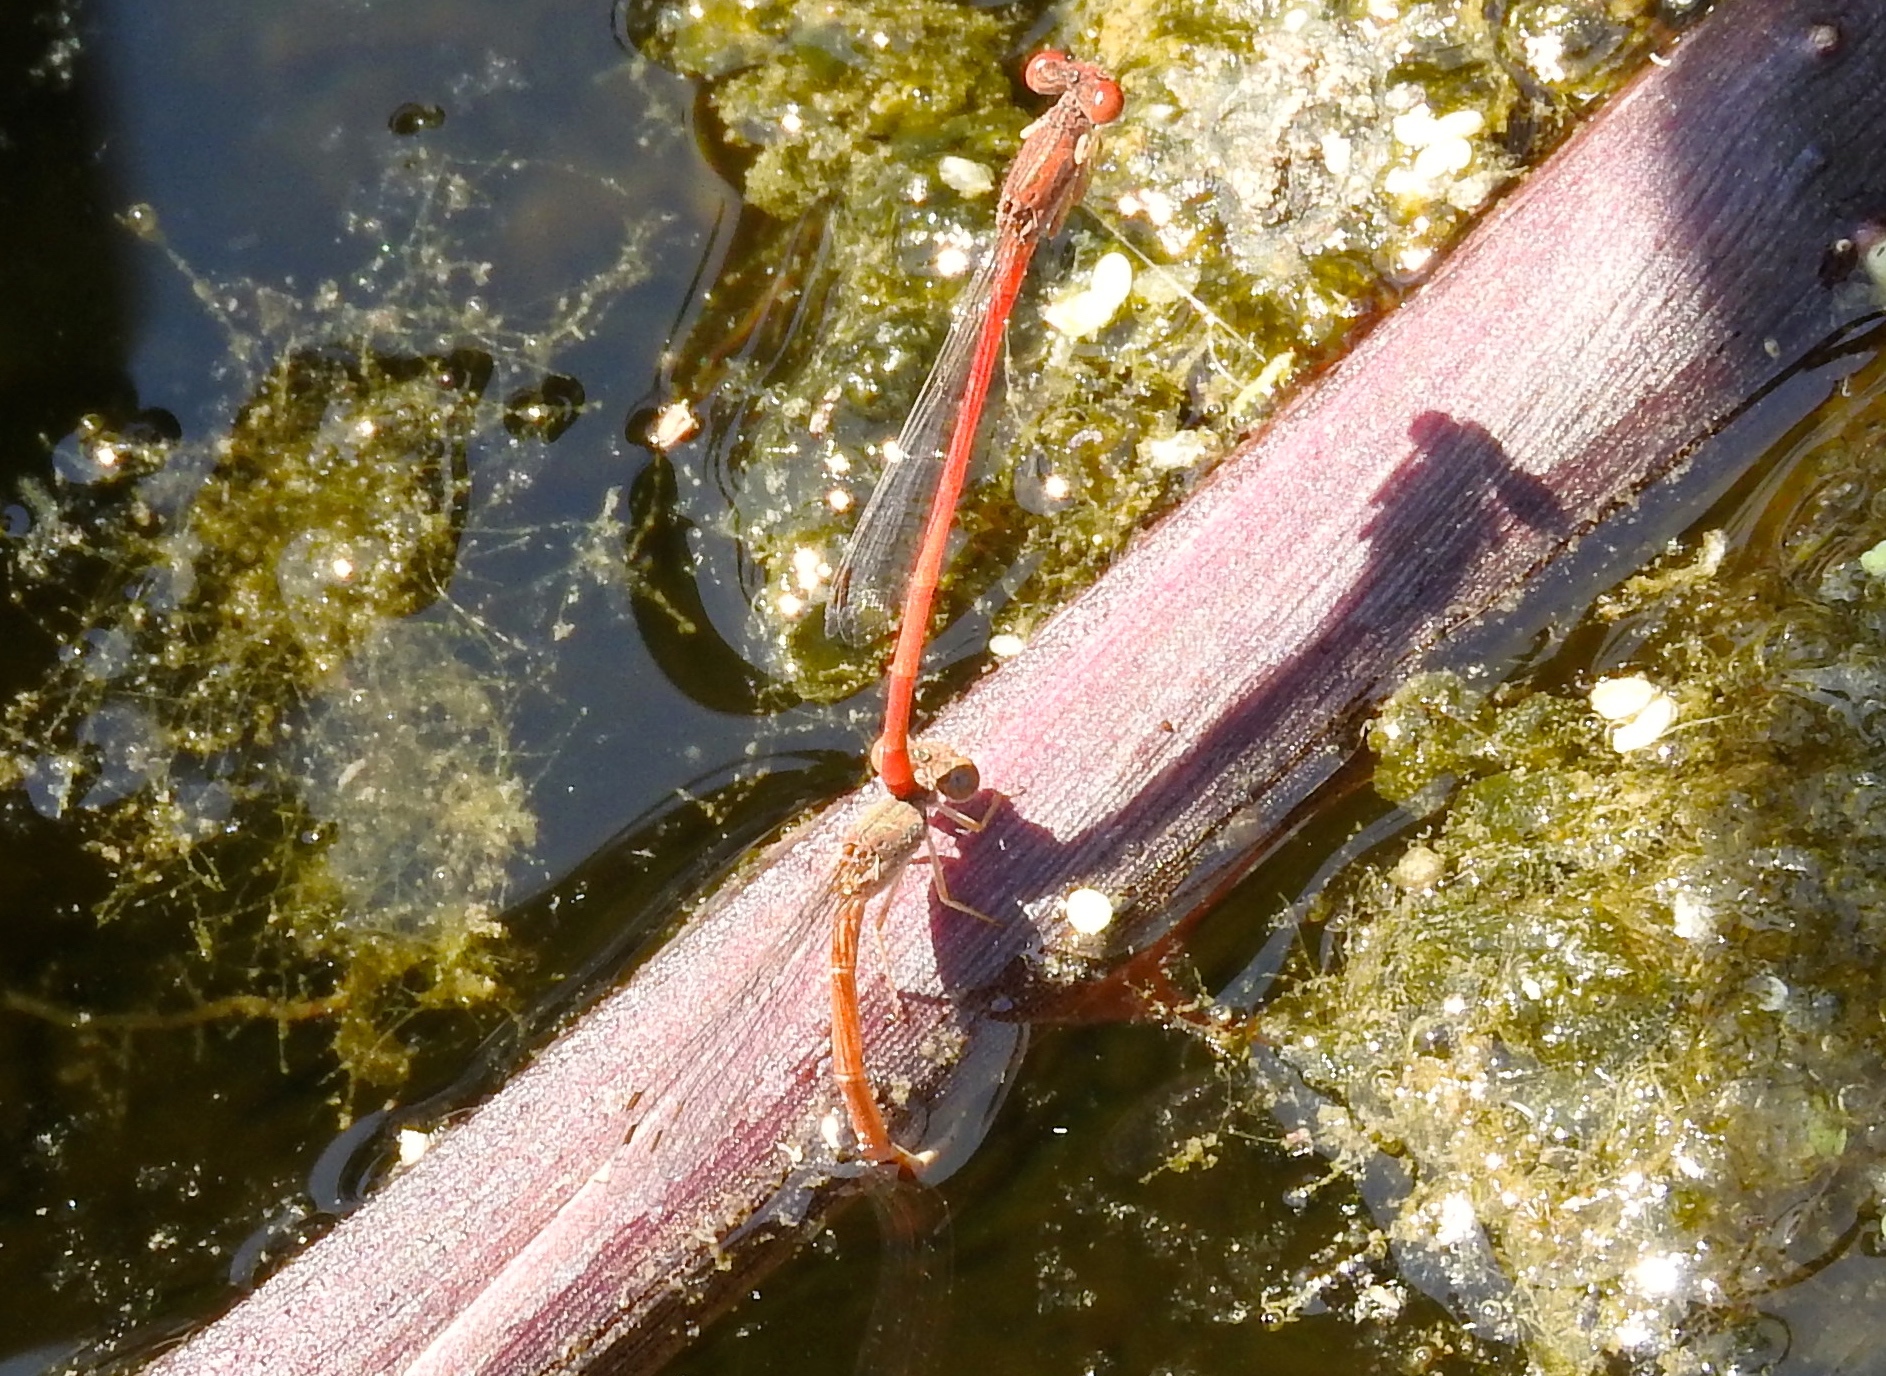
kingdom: Animalia
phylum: Arthropoda
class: Insecta
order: Odonata
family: Coenagrionidae
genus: Telebasis
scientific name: Telebasis salva
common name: Desert firetail
